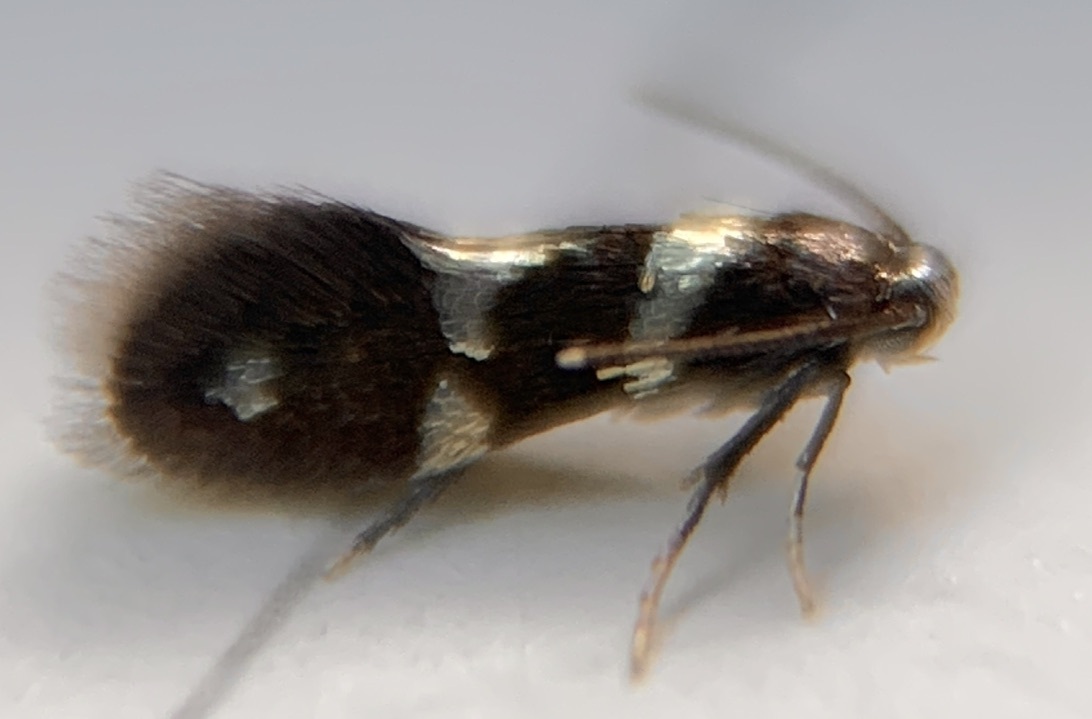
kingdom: Animalia
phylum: Arthropoda
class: Insecta
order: Lepidoptera
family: Heliozelidae
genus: Antispila
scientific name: Antispila oinophylla
